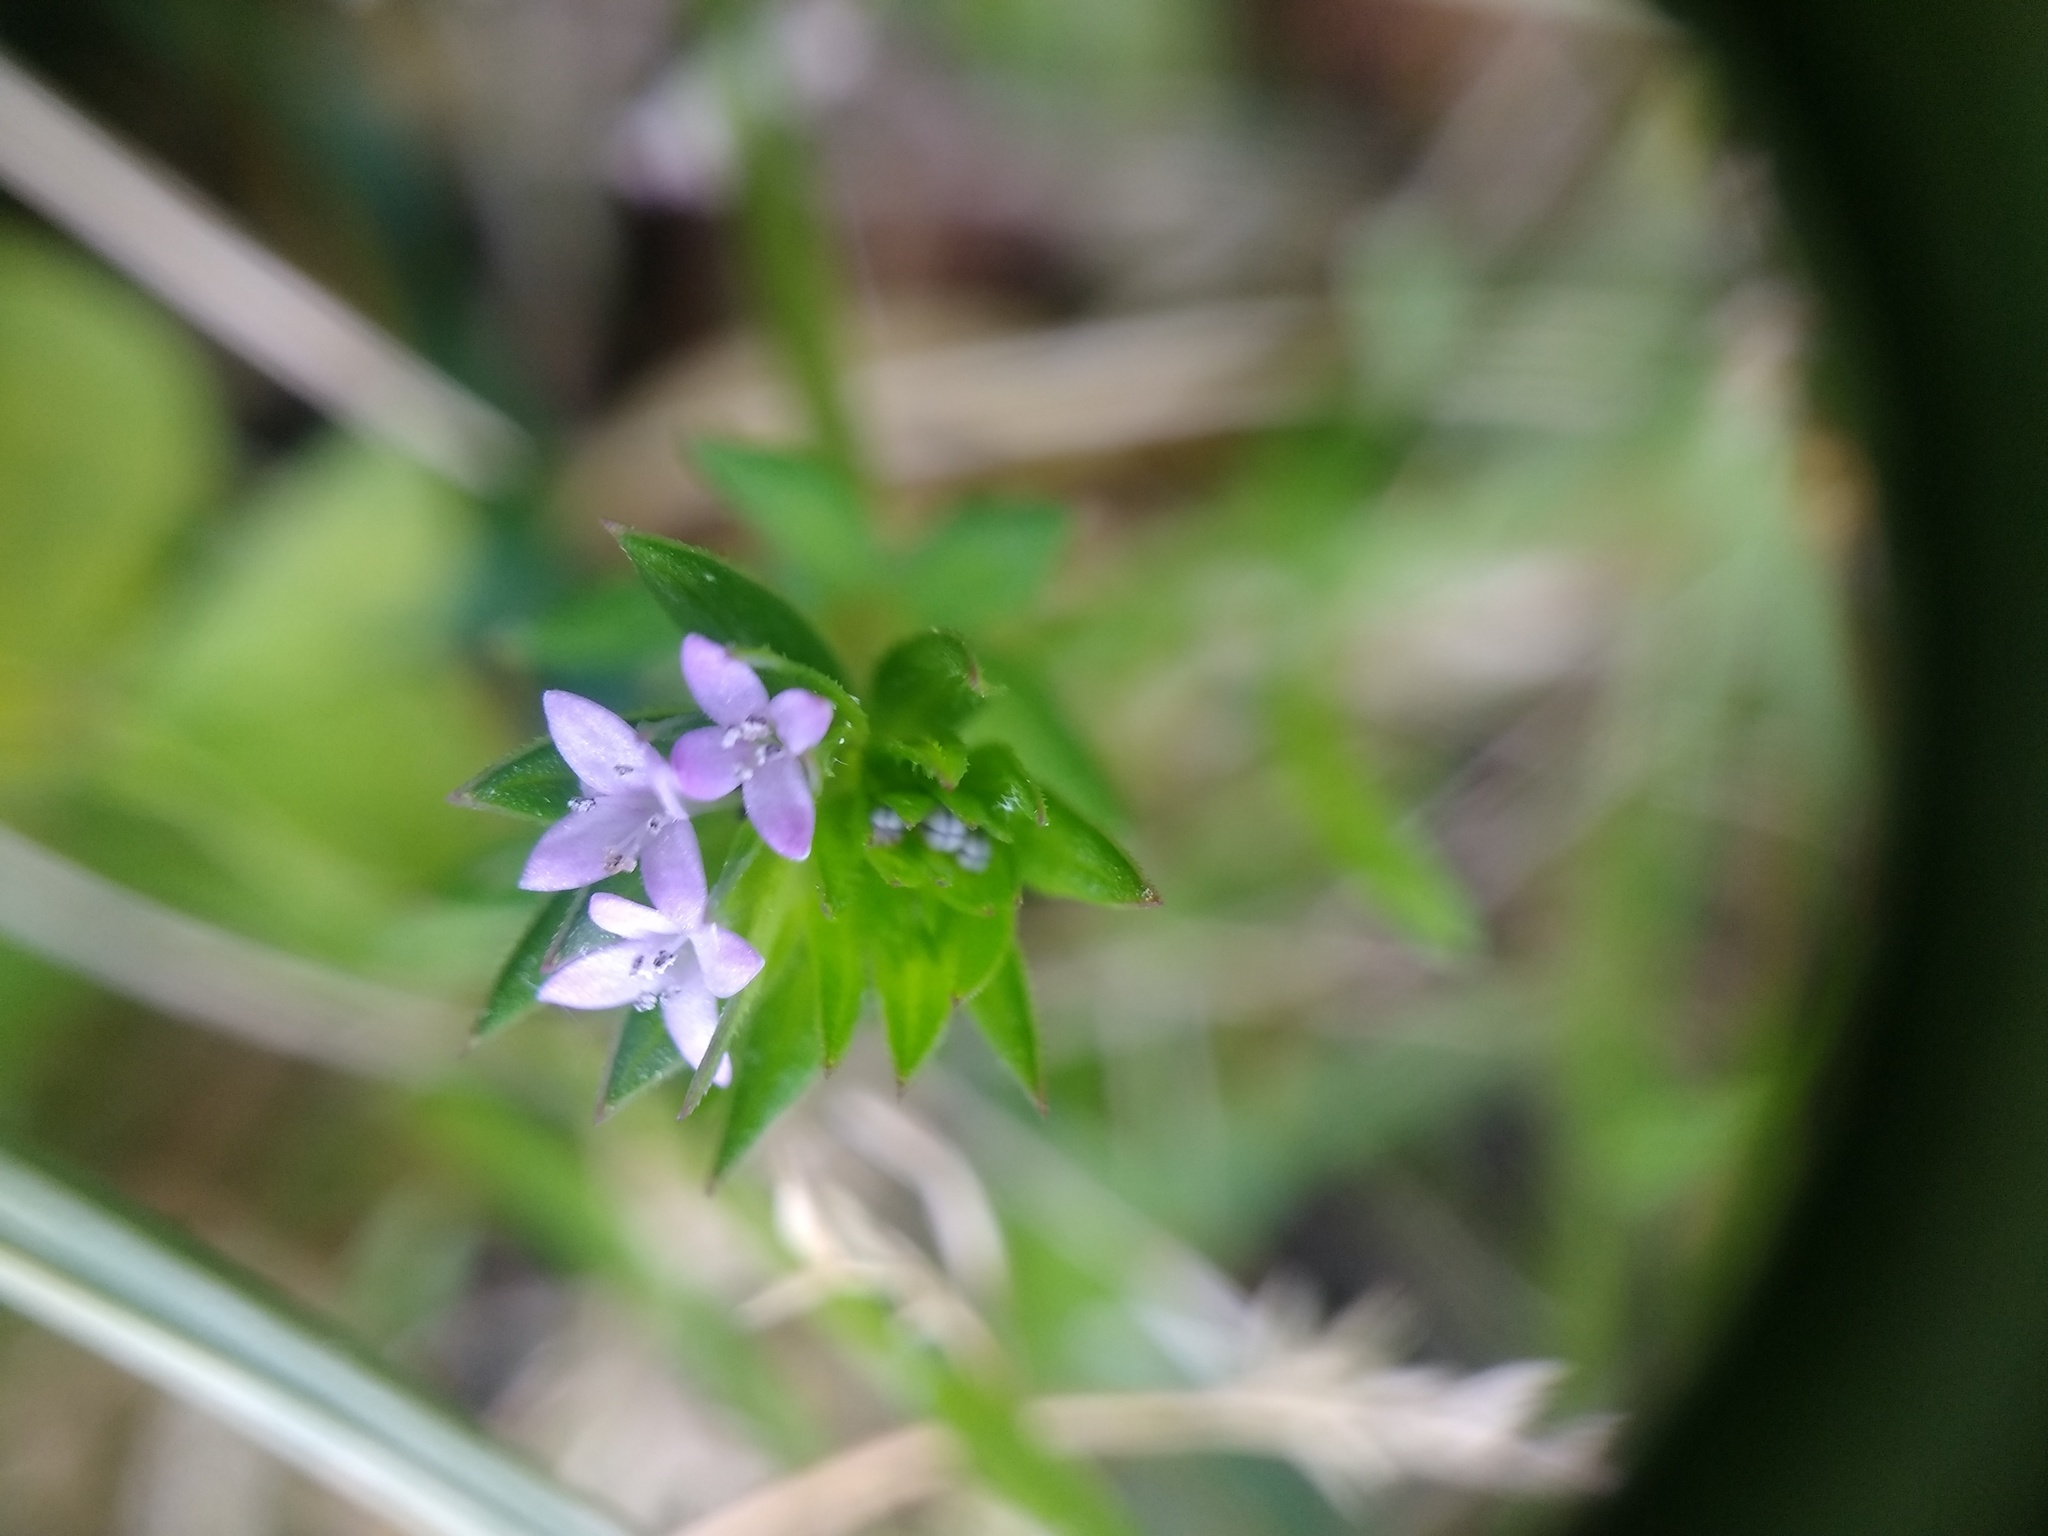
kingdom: Plantae
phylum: Tracheophyta
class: Magnoliopsida
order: Gentianales
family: Rubiaceae
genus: Sherardia
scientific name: Sherardia arvensis
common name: Field madder
